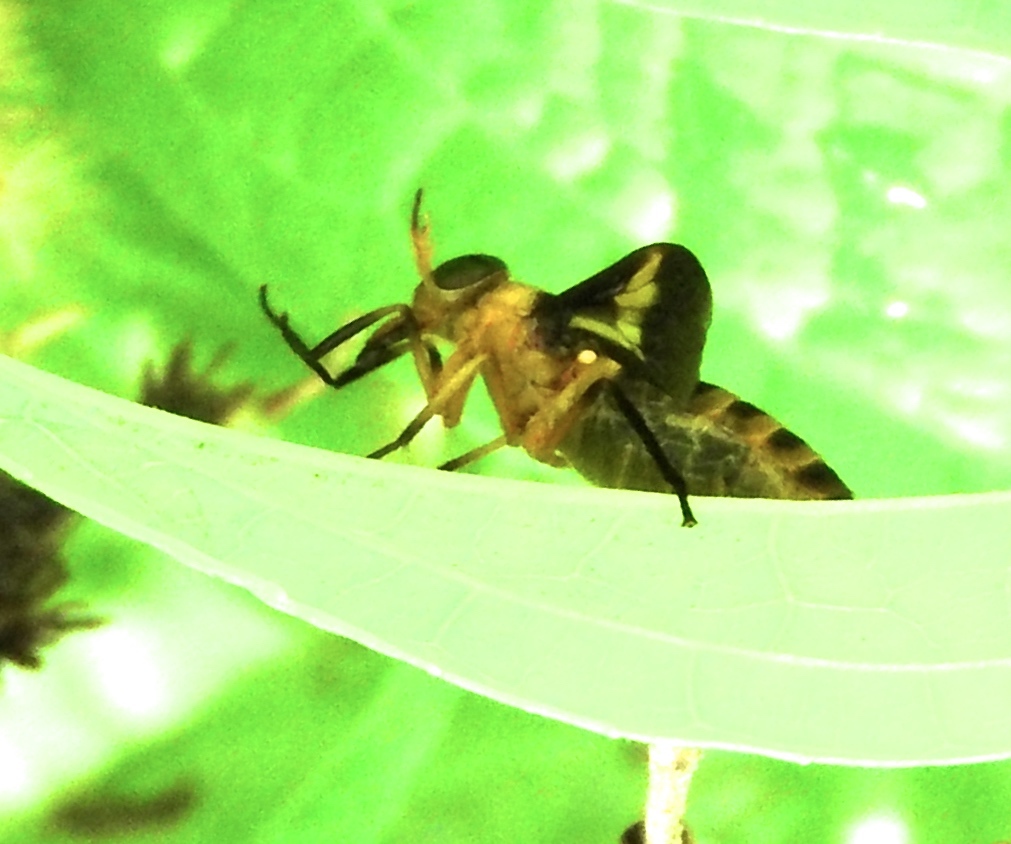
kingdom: Animalia
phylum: Arthropoda
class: Insecta
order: Diptera
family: Tabanidae
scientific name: Tabanidae
